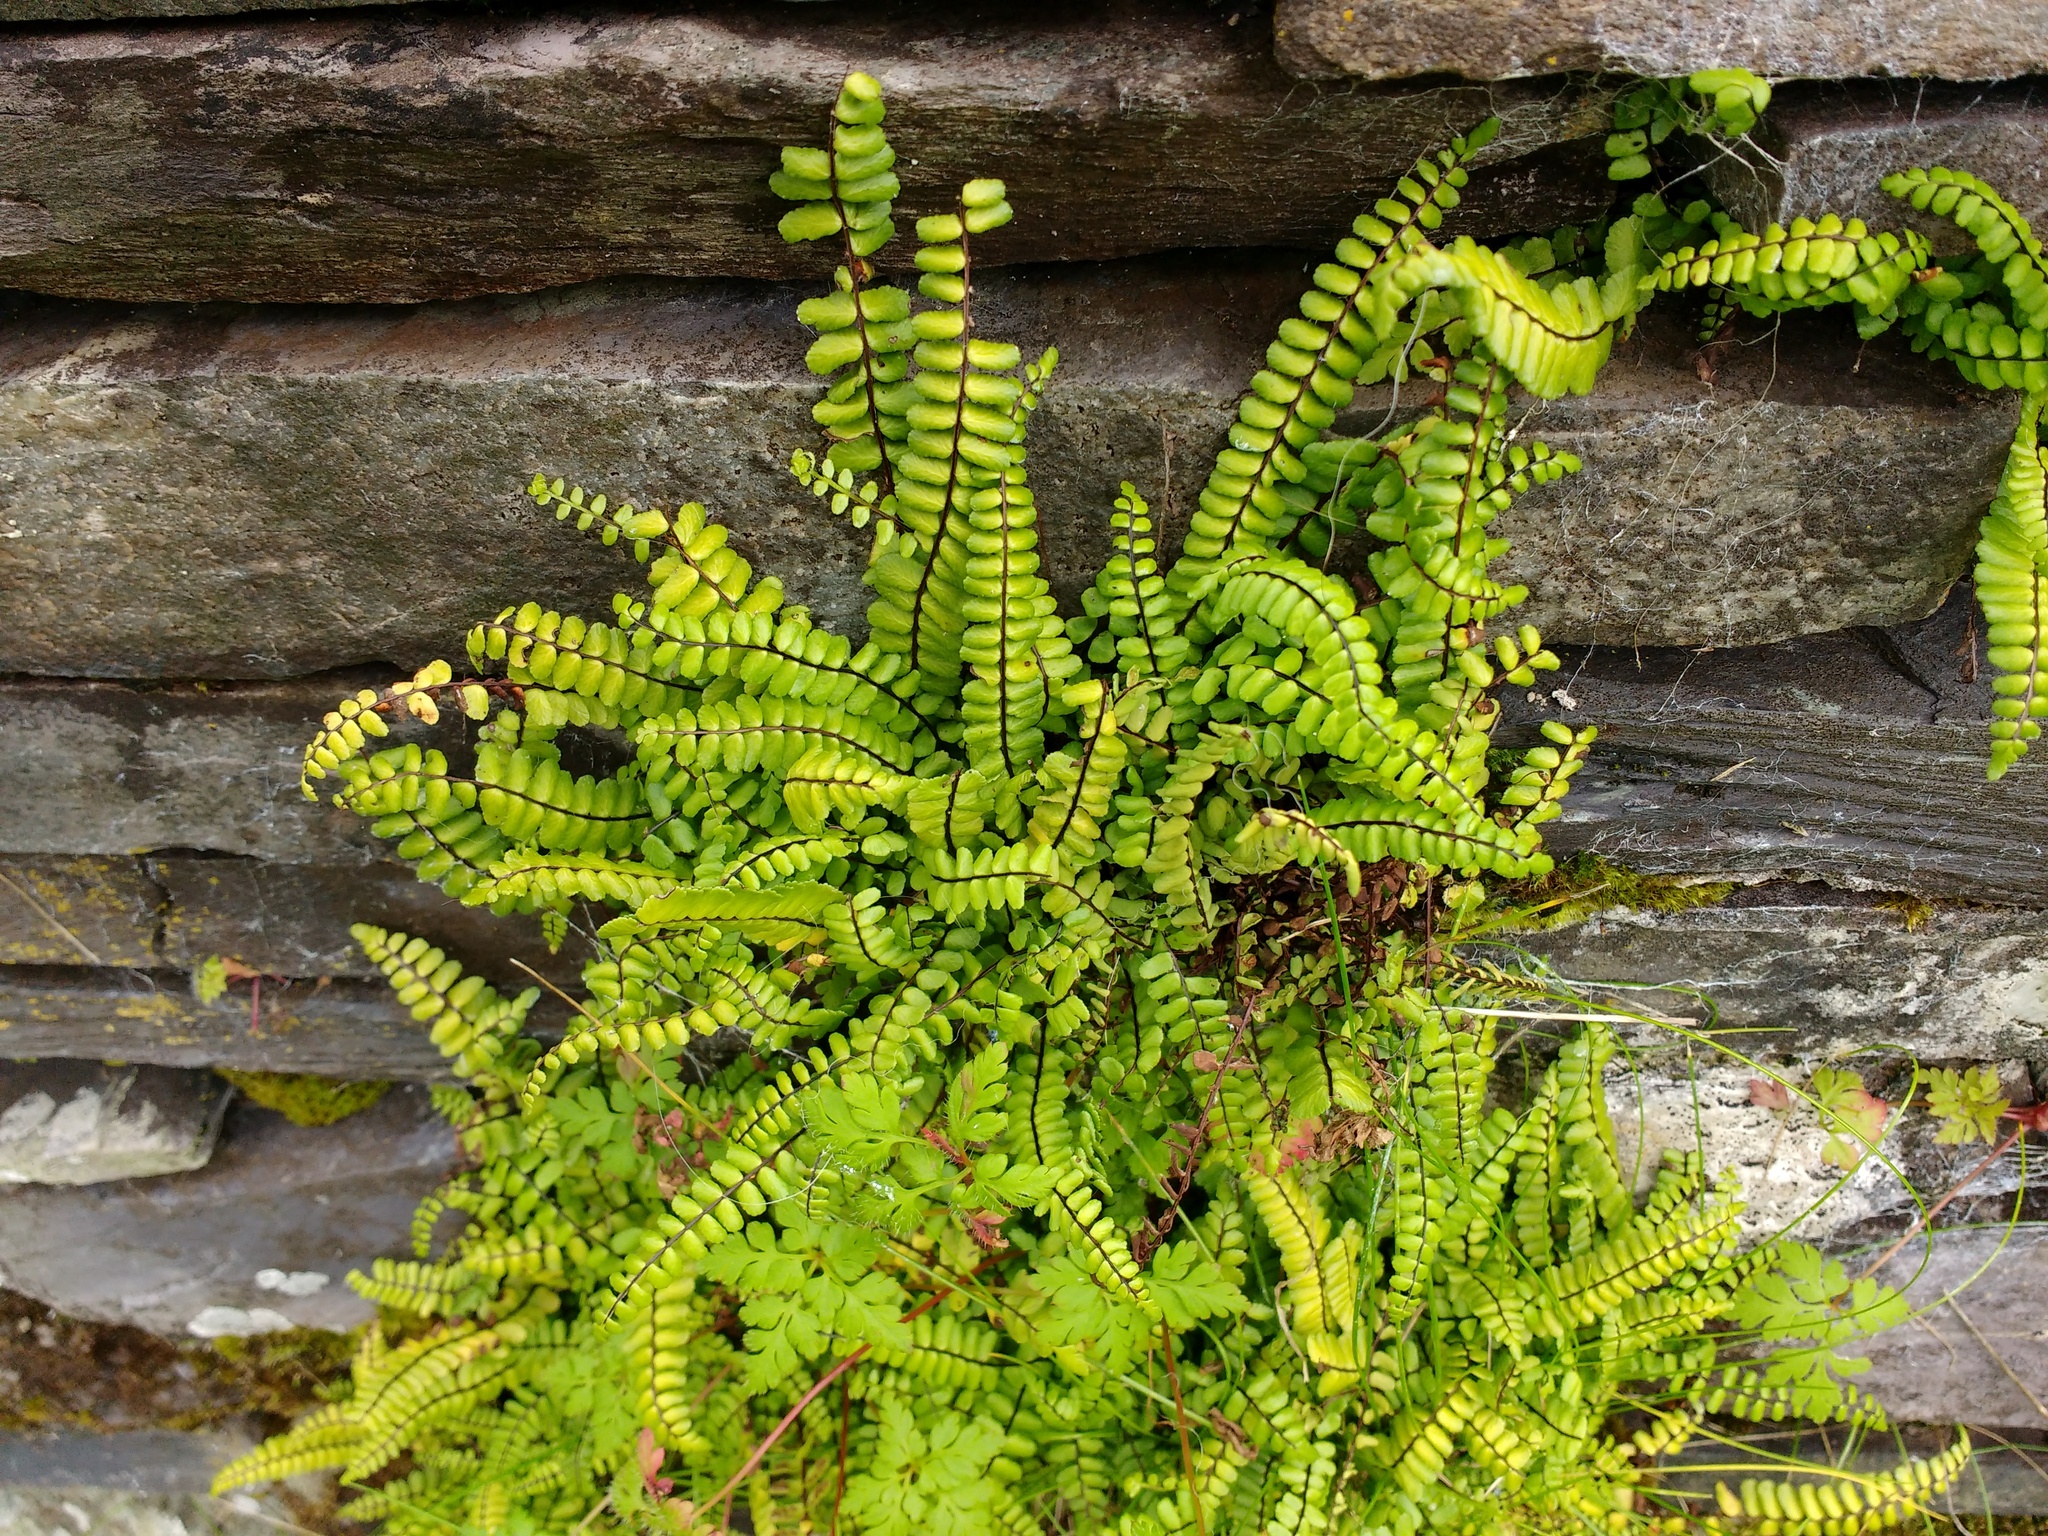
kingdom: Plantae
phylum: Tracheophyta
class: Polypodiopsida
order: Polypodiales
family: Aspleniaceae
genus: Asplenium
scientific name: Asplenium trichomanes
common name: Maidenhair spleenwort
